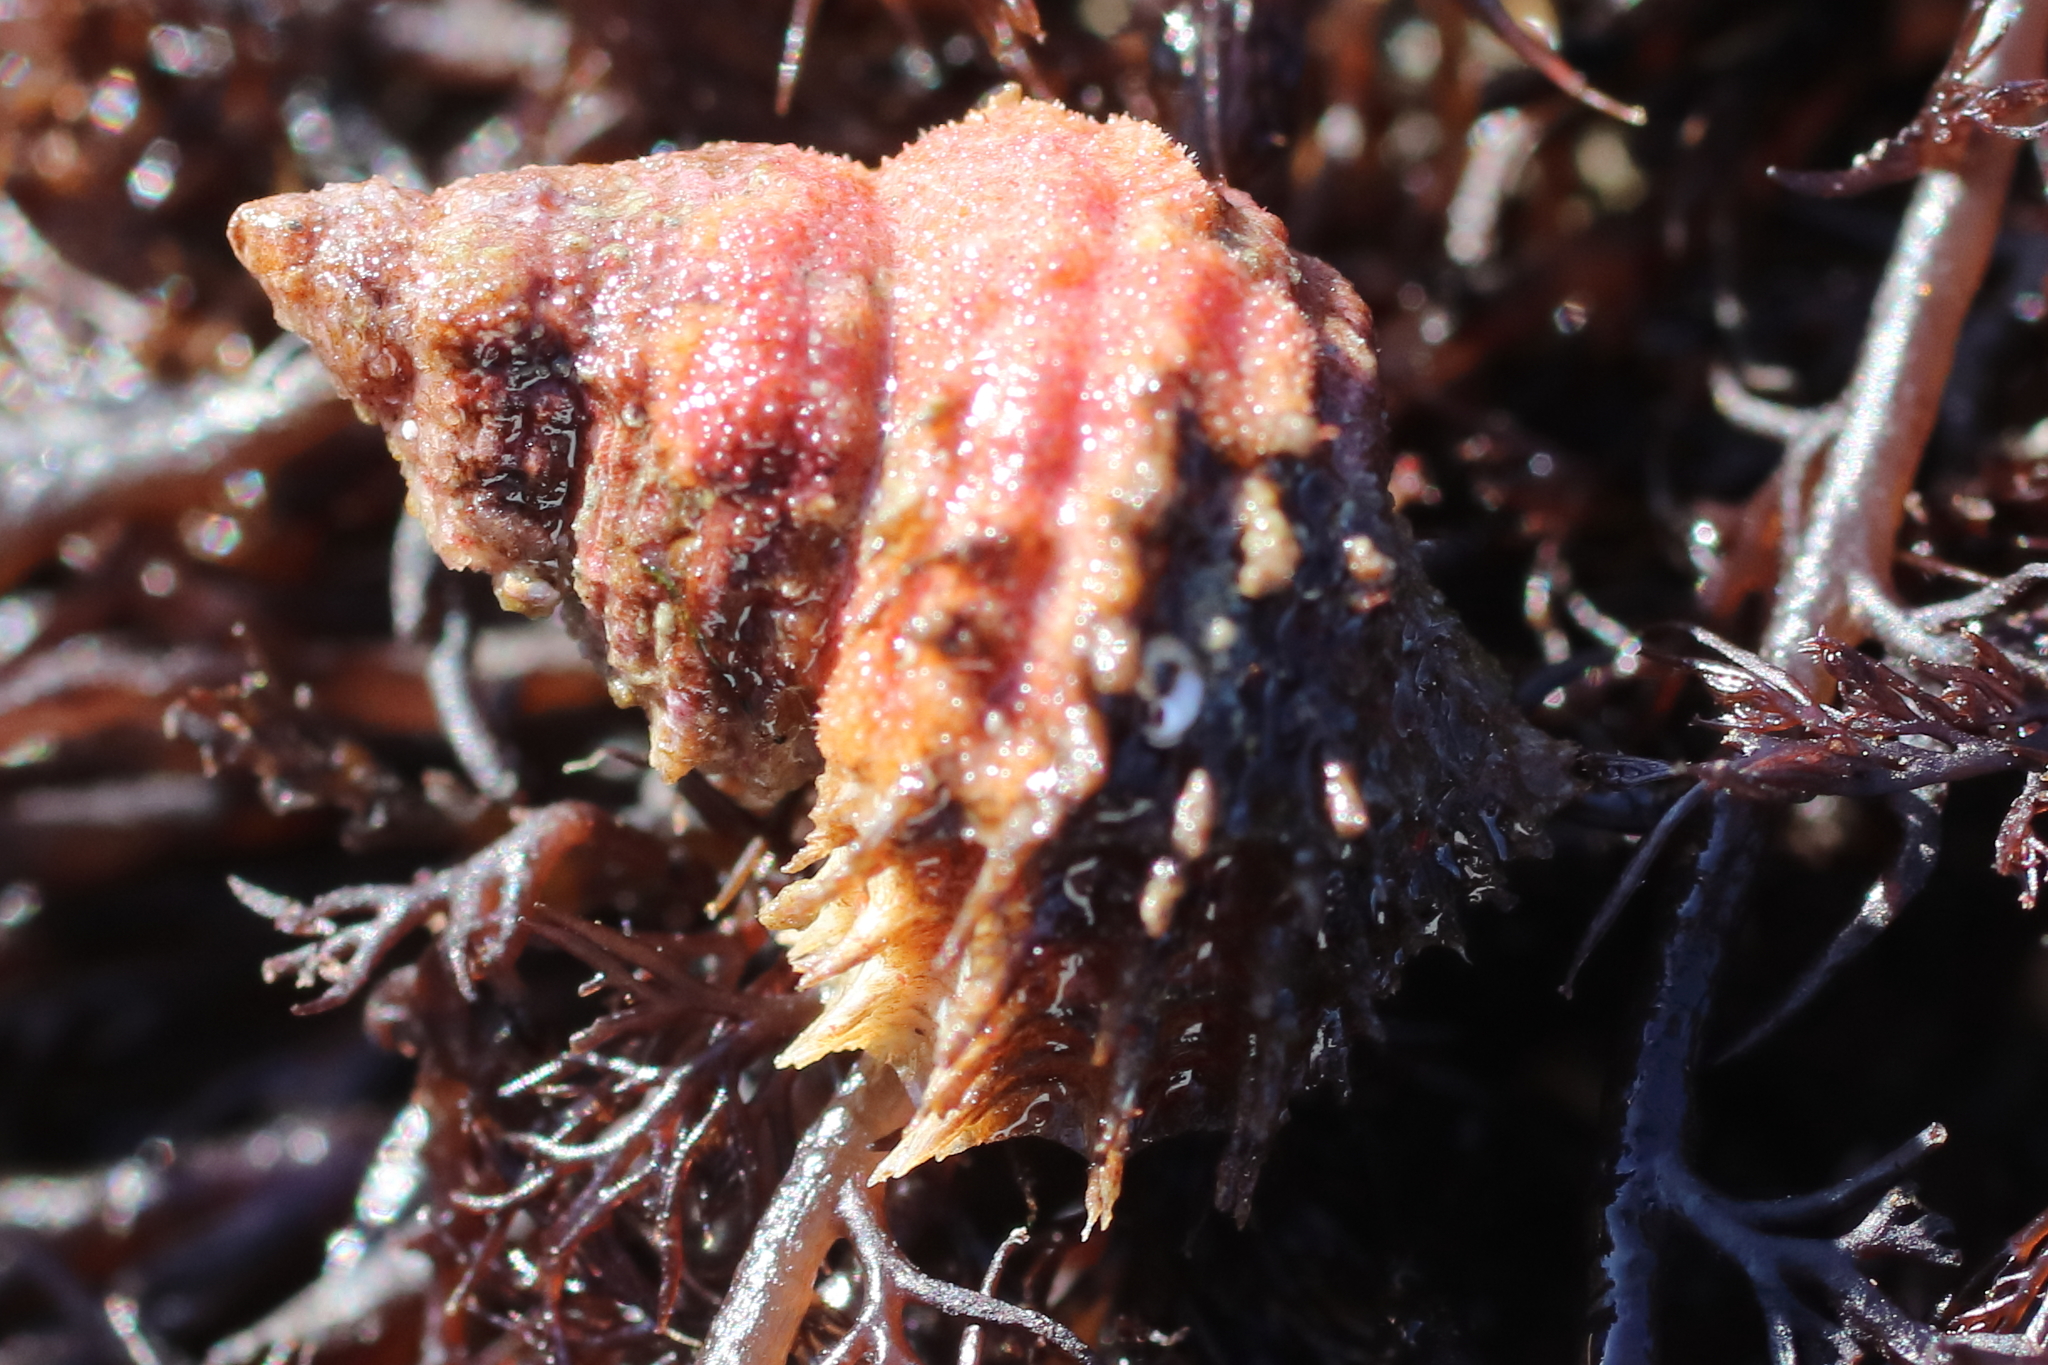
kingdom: Animalia
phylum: Mollusca
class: Gastropoda
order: Littorinimorpha
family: Capulidae
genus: Trichotropis
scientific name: Trichotropis cancellata
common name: Cancellate hairysnail
